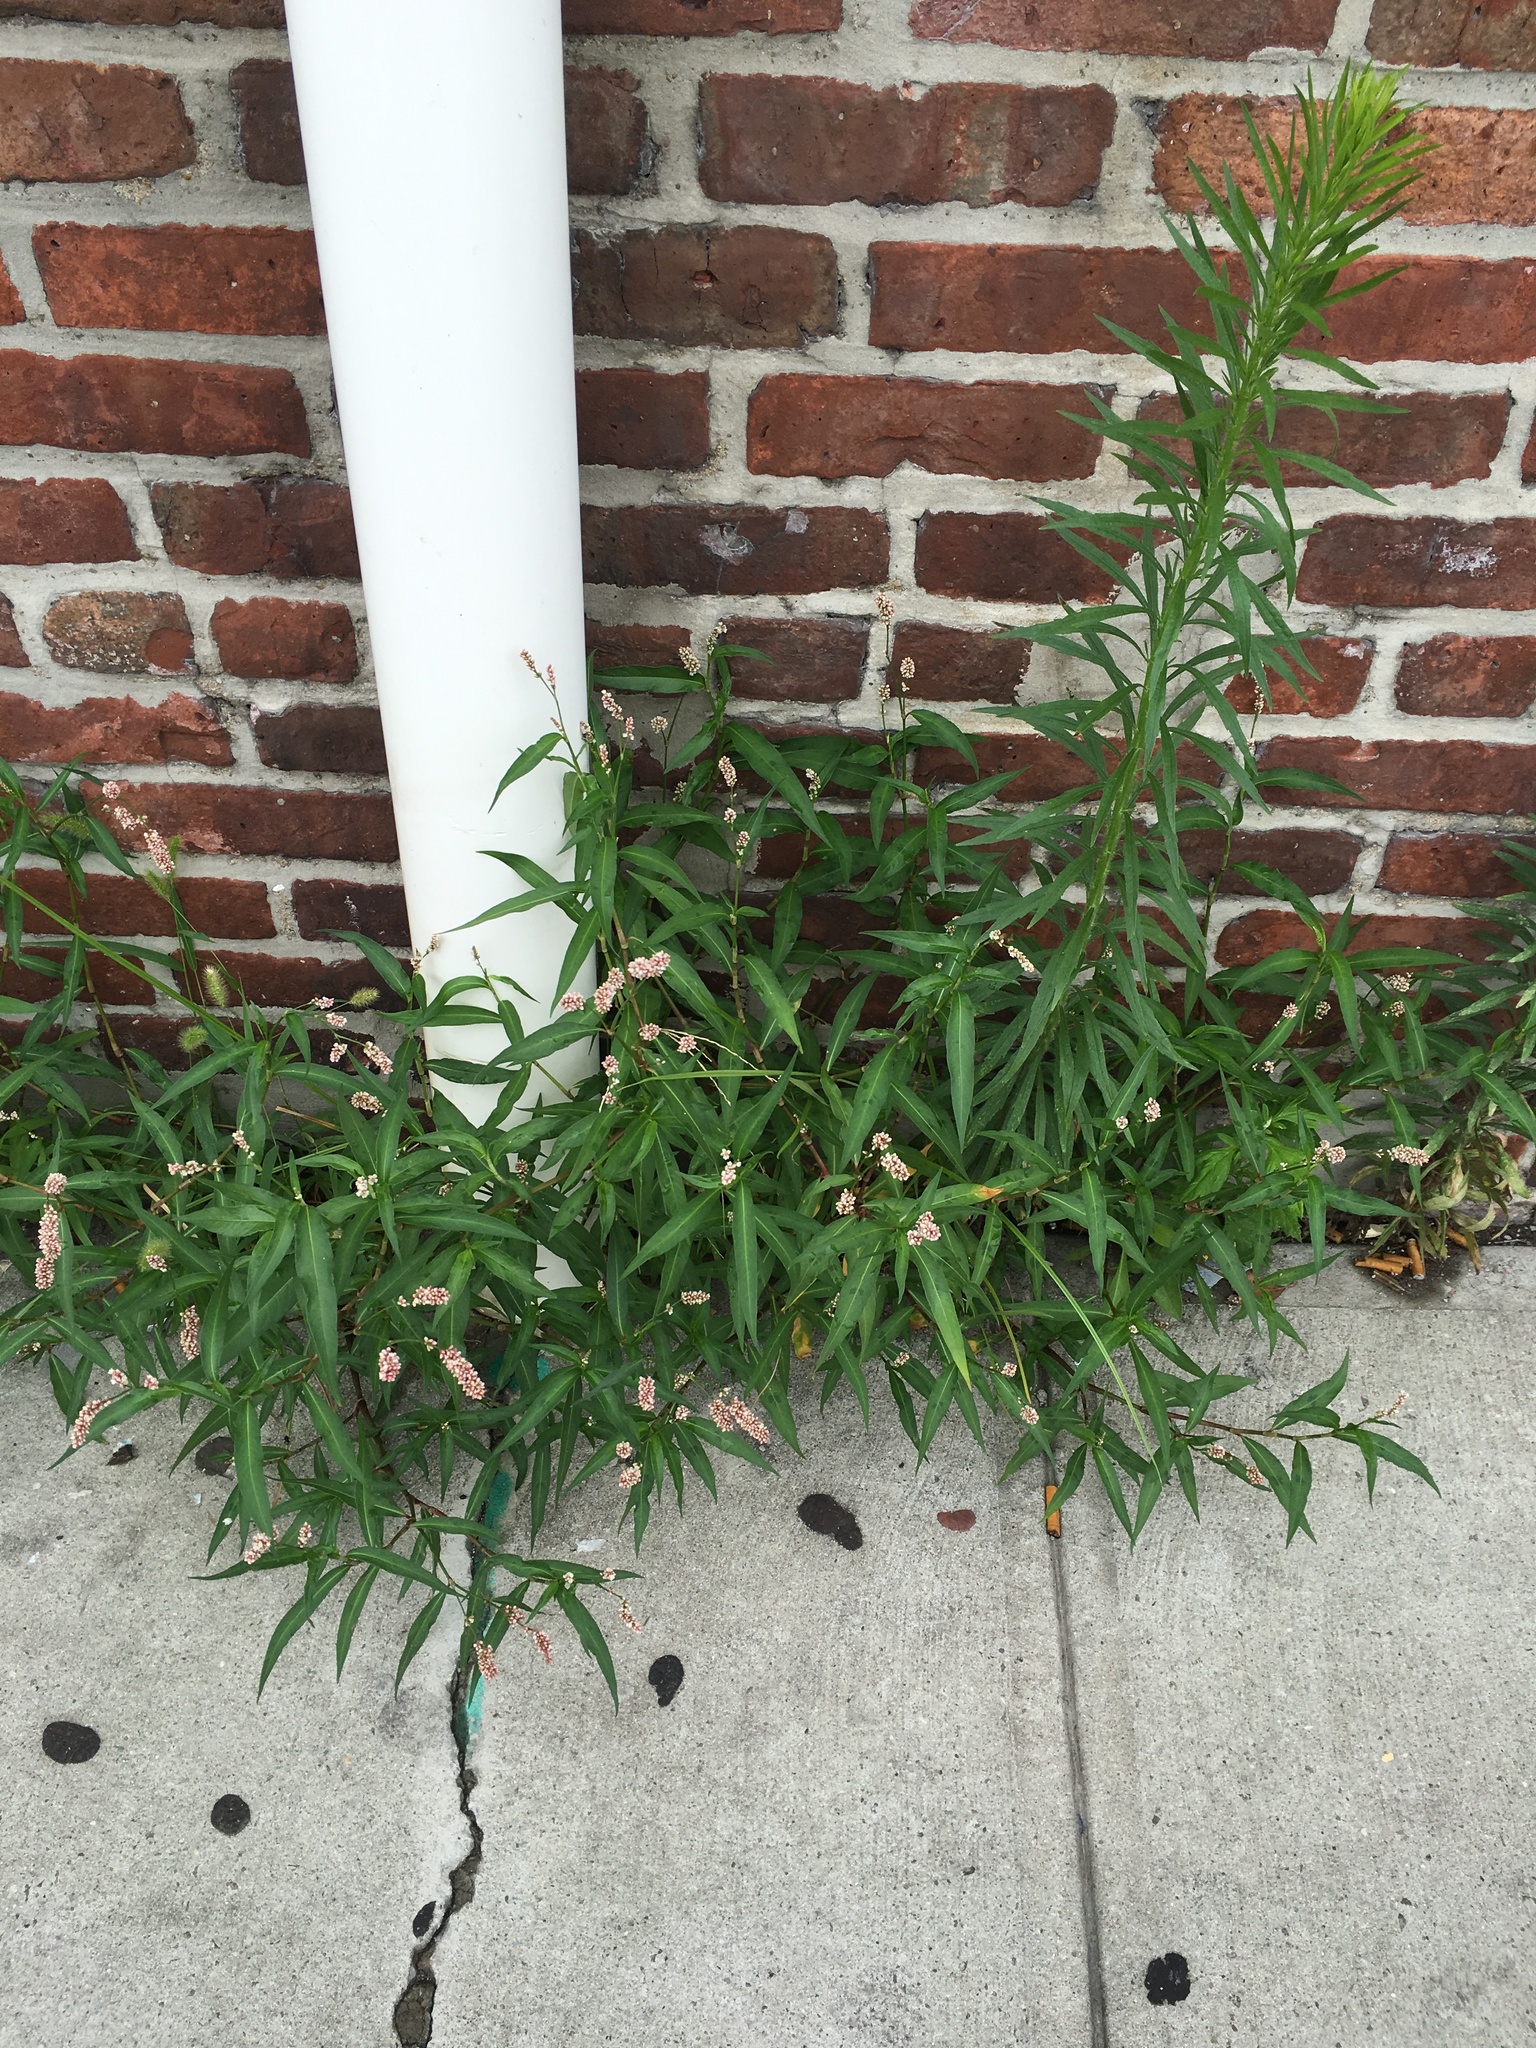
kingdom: Plantae
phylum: Tracheophyta
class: Magnoliopsida
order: Caryophyllales
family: Polygonaceae
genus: Persicaria
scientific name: Persicaria maculosa
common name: Redshank
